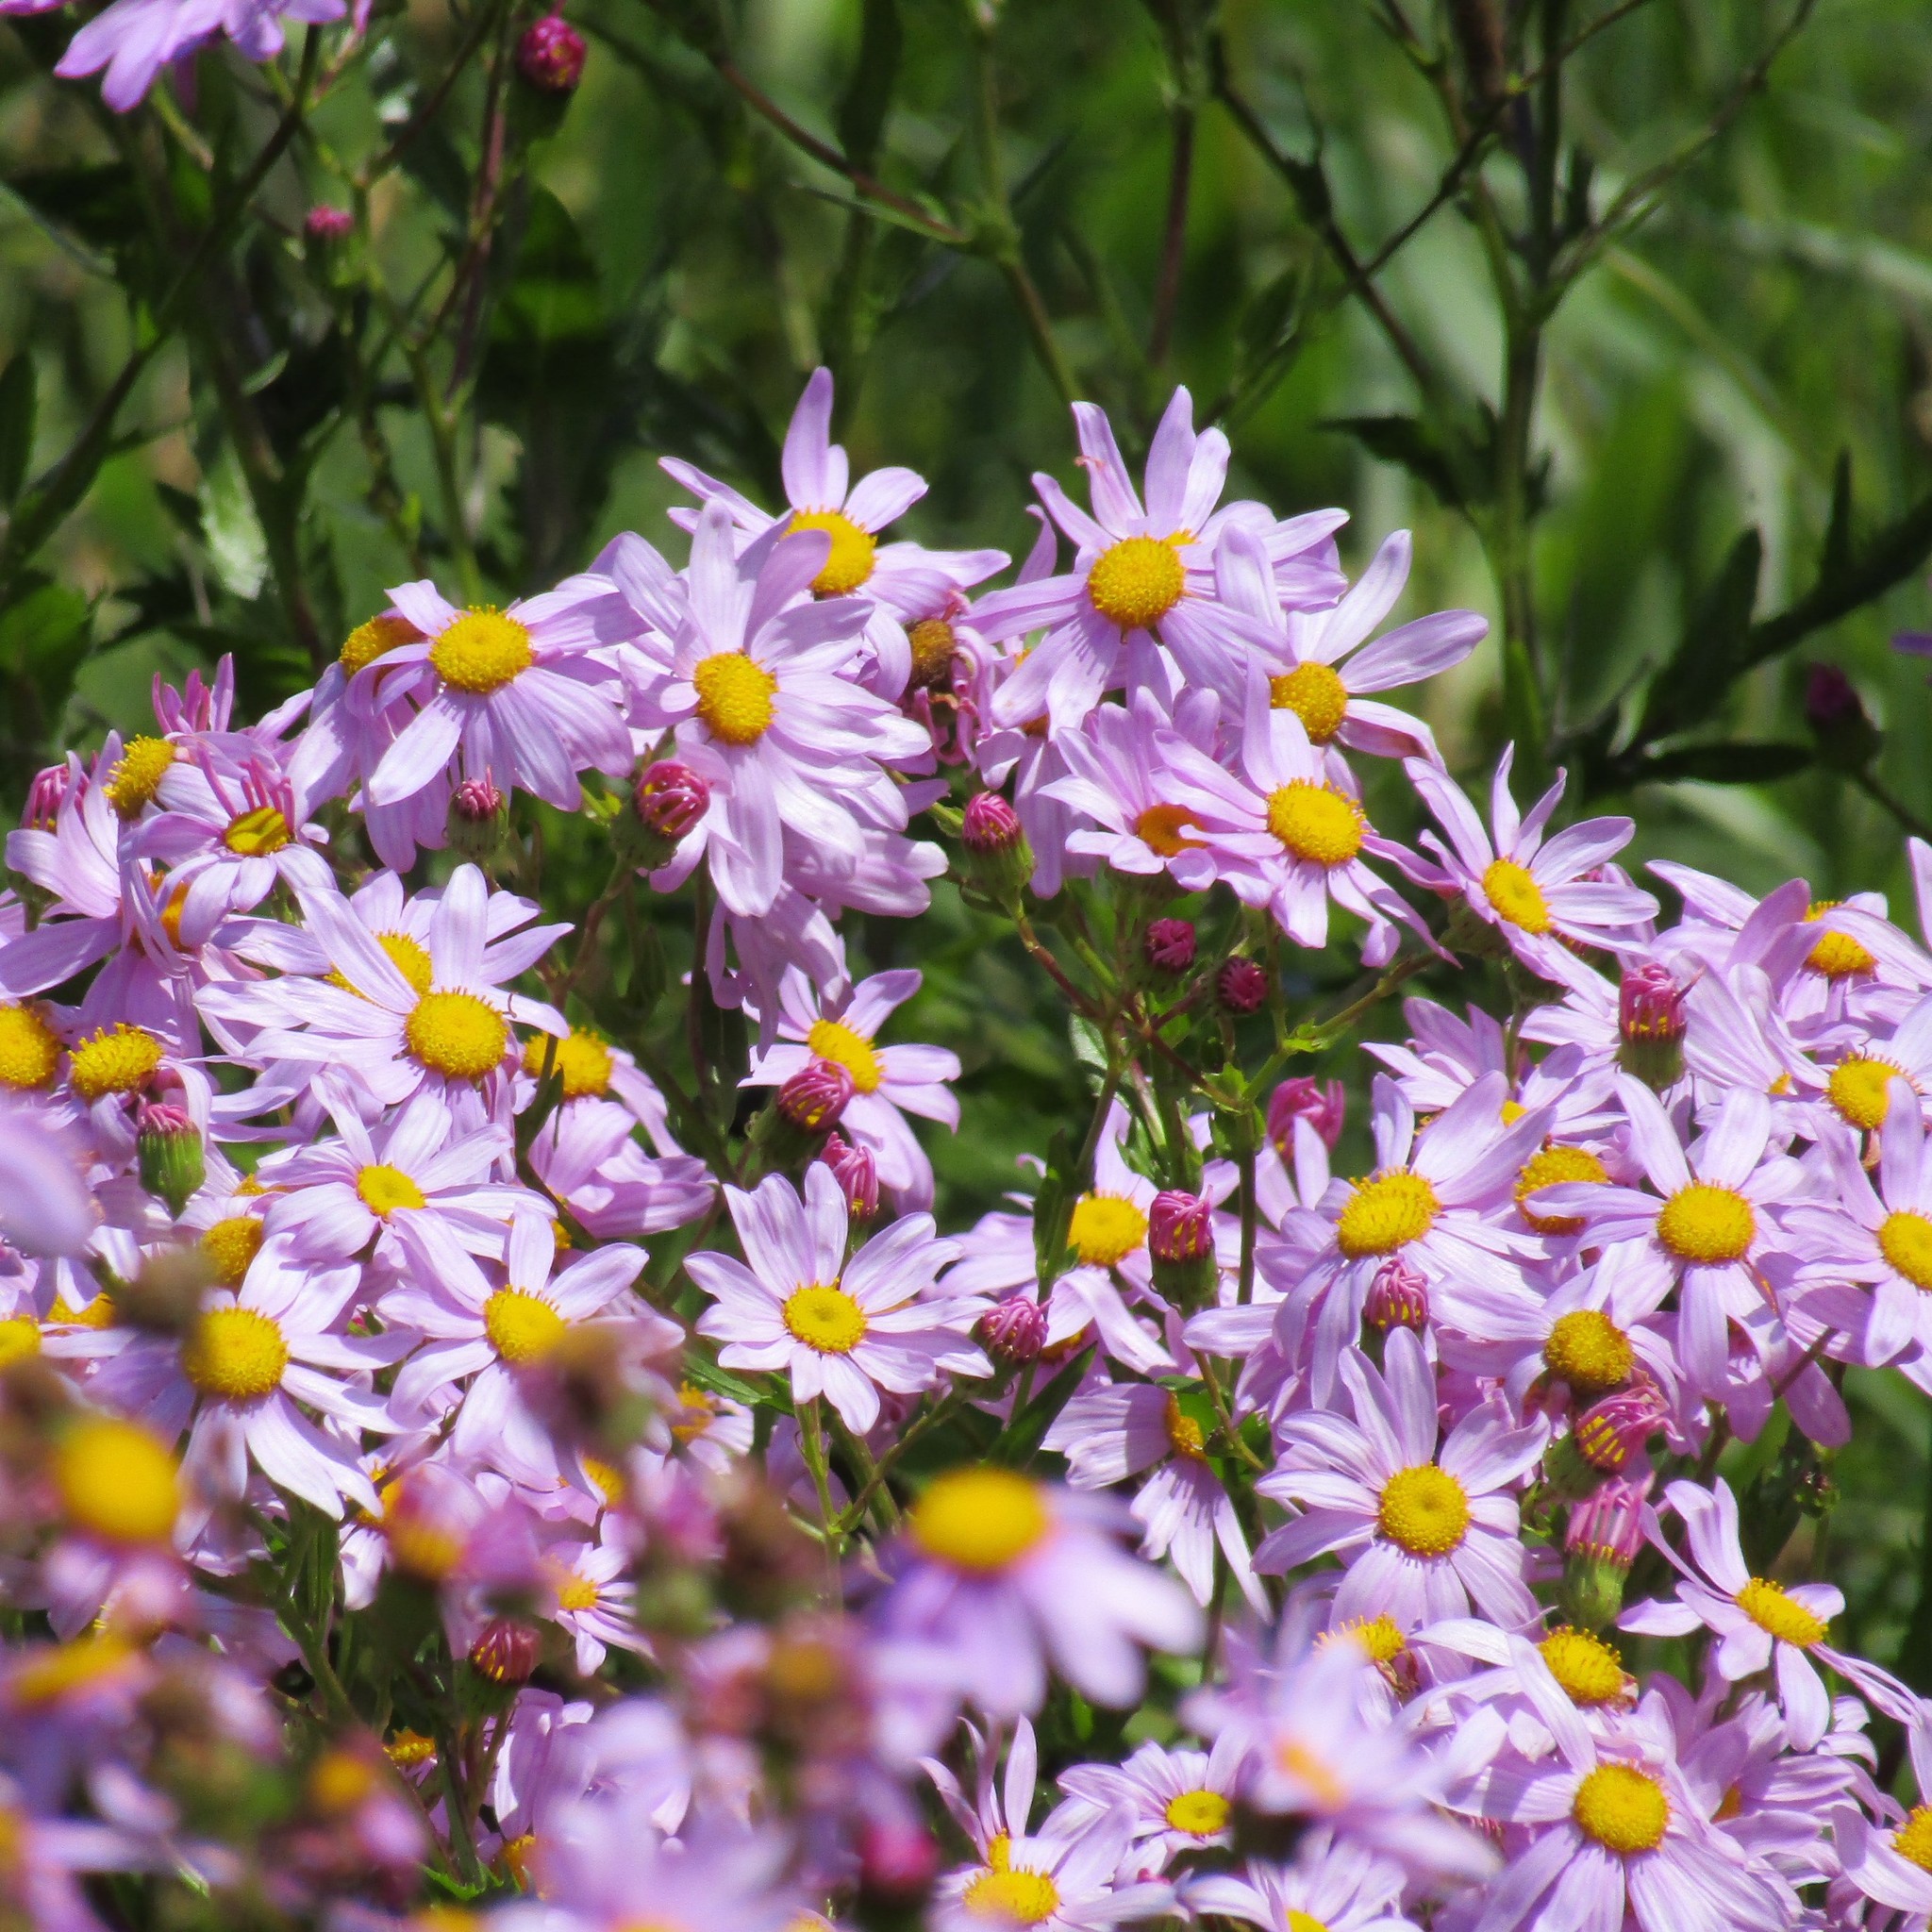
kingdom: Plantae
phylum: Tracheophyta
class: Magnoliopsida
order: Asterales
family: Asteraceae
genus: Senecio
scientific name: Senecio glastifolius
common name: Woad-leaved ragwort
